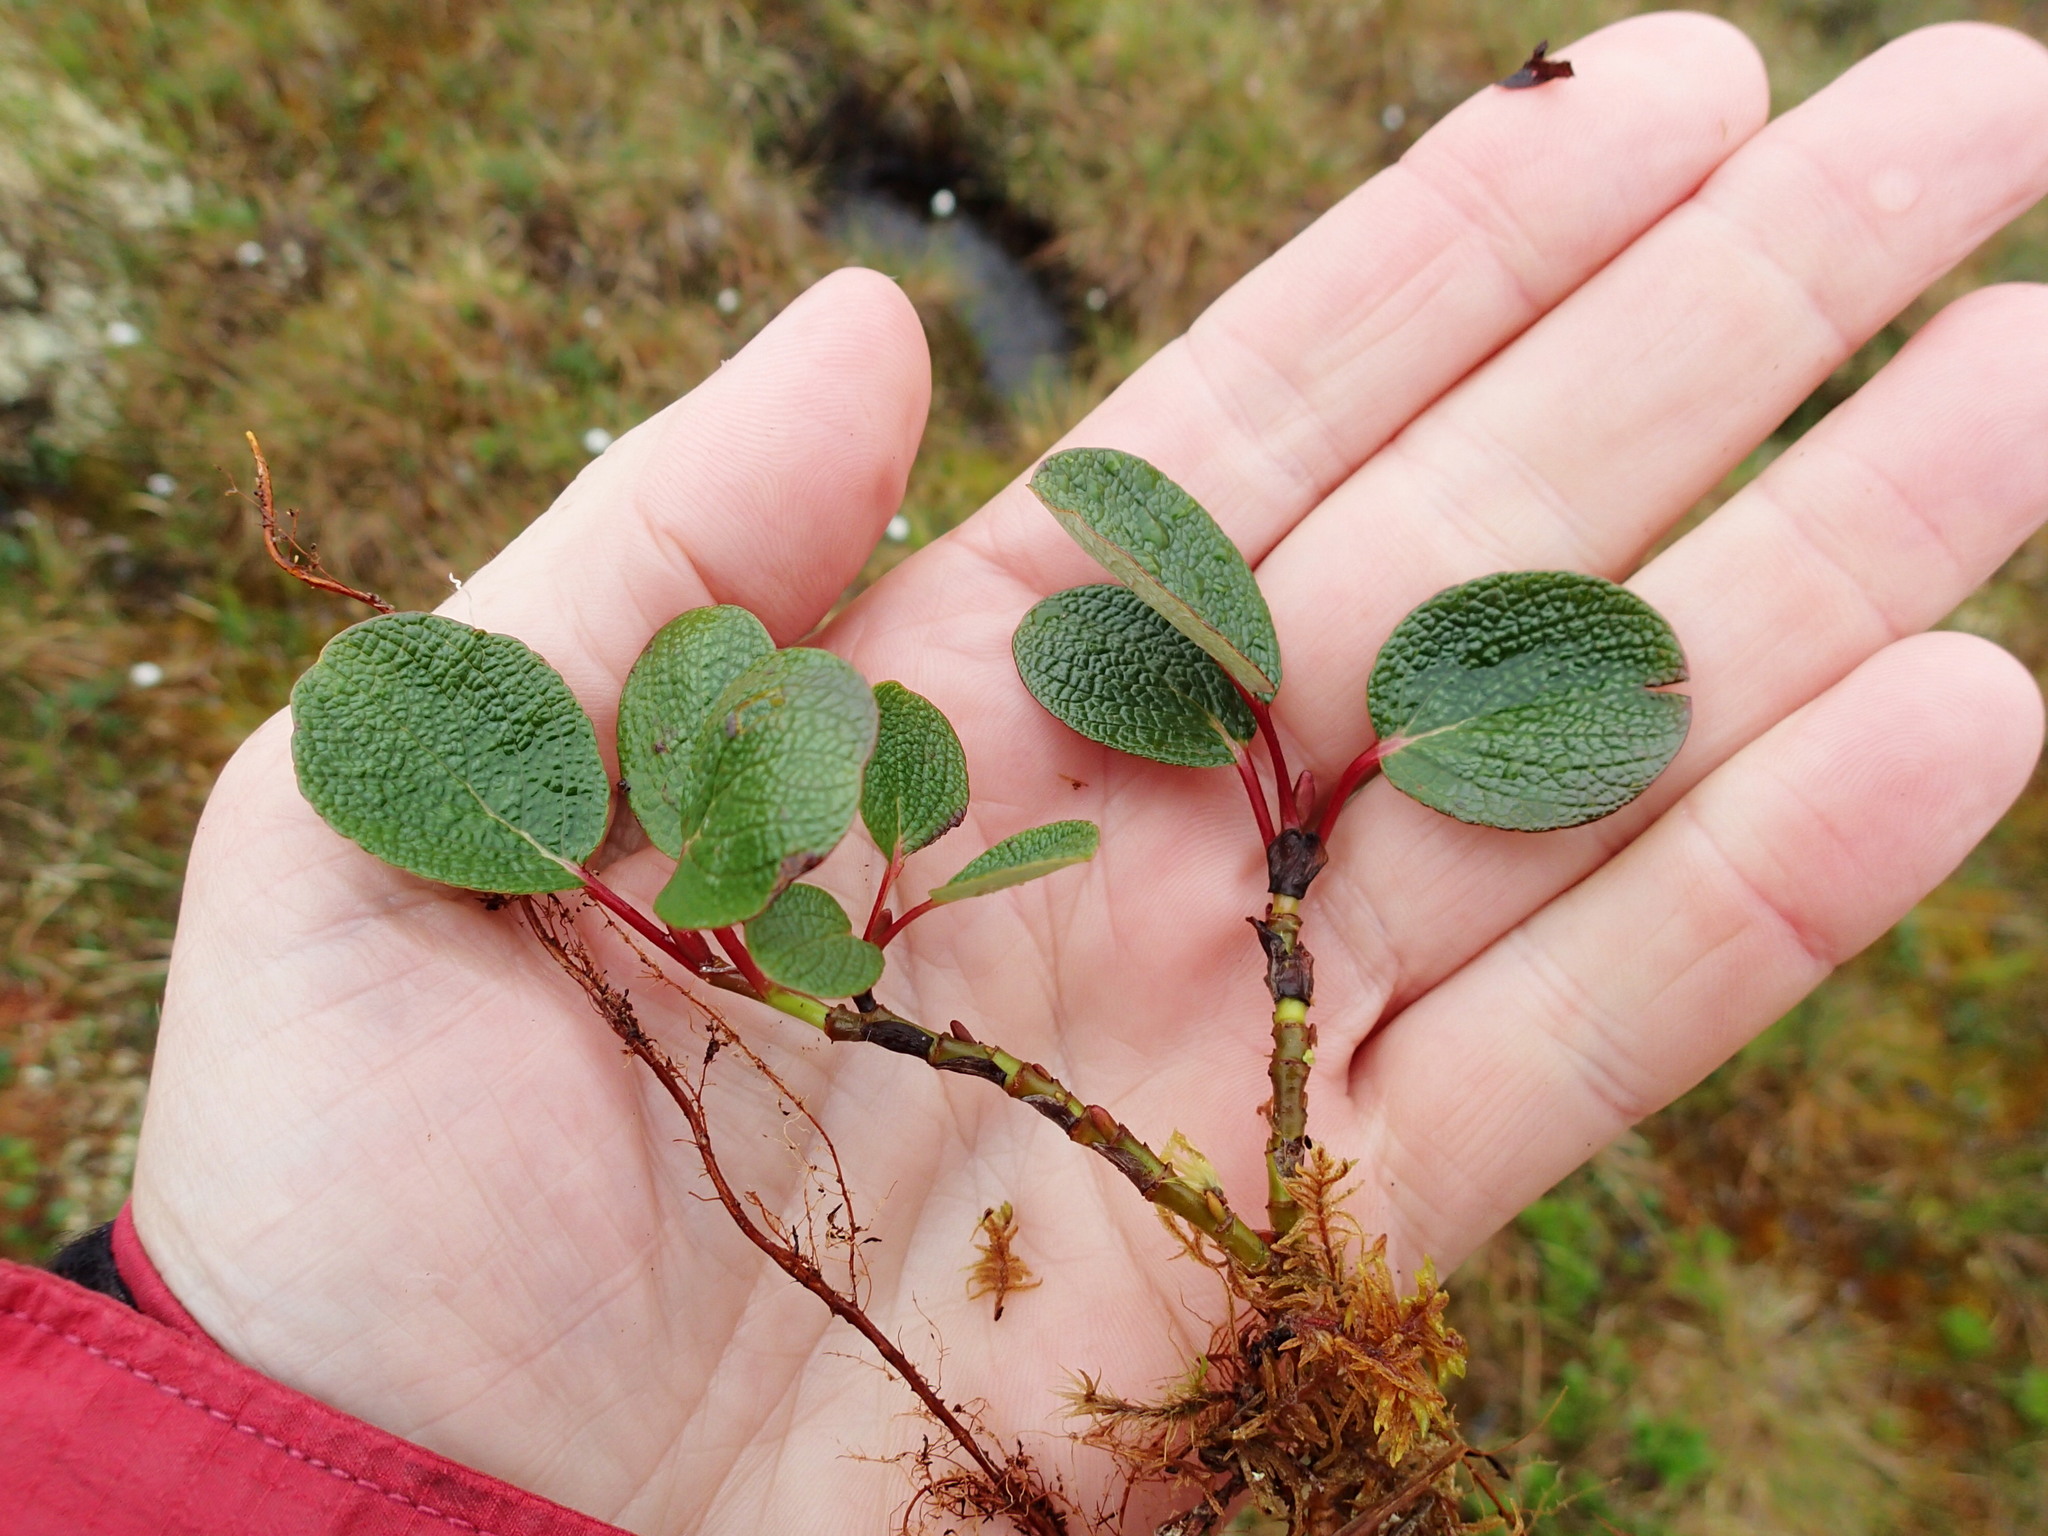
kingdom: Plantae
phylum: Tracheophyta
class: Magnoliopsida
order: Malpighiales
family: Salicaceae
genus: Salix
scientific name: Salix reticulata
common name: Net-leaved willow
